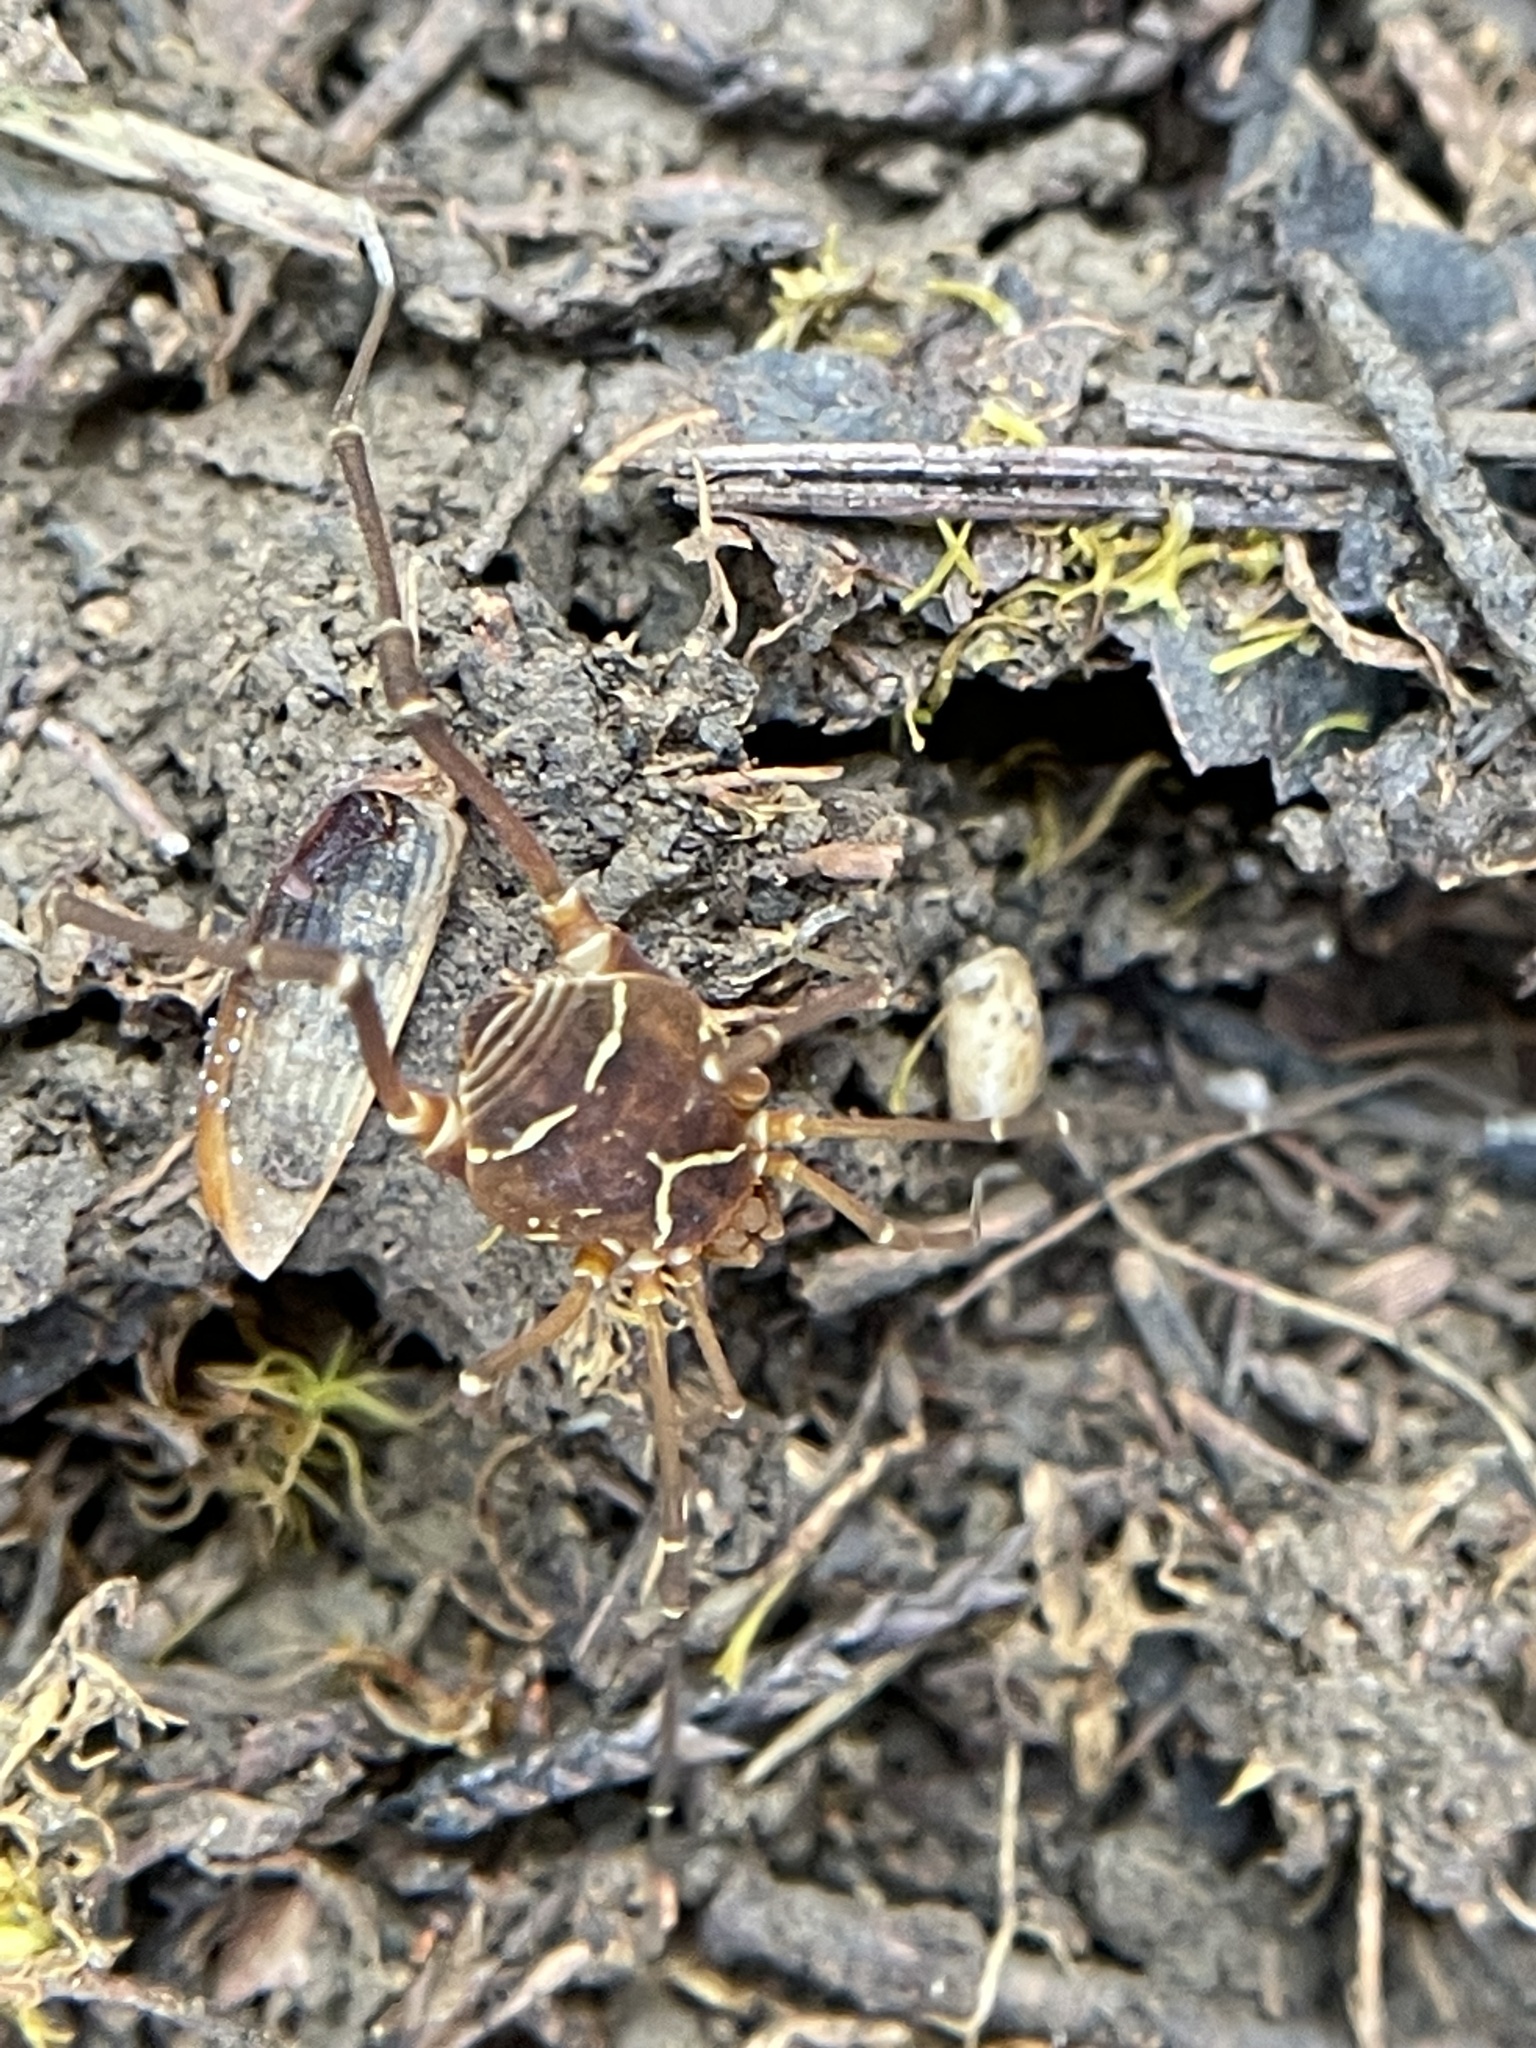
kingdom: Animalia
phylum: Arthropoda
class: Arachnida
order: Opiliones
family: Cosmetidae
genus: Libitioides
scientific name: Libitioides sayi
